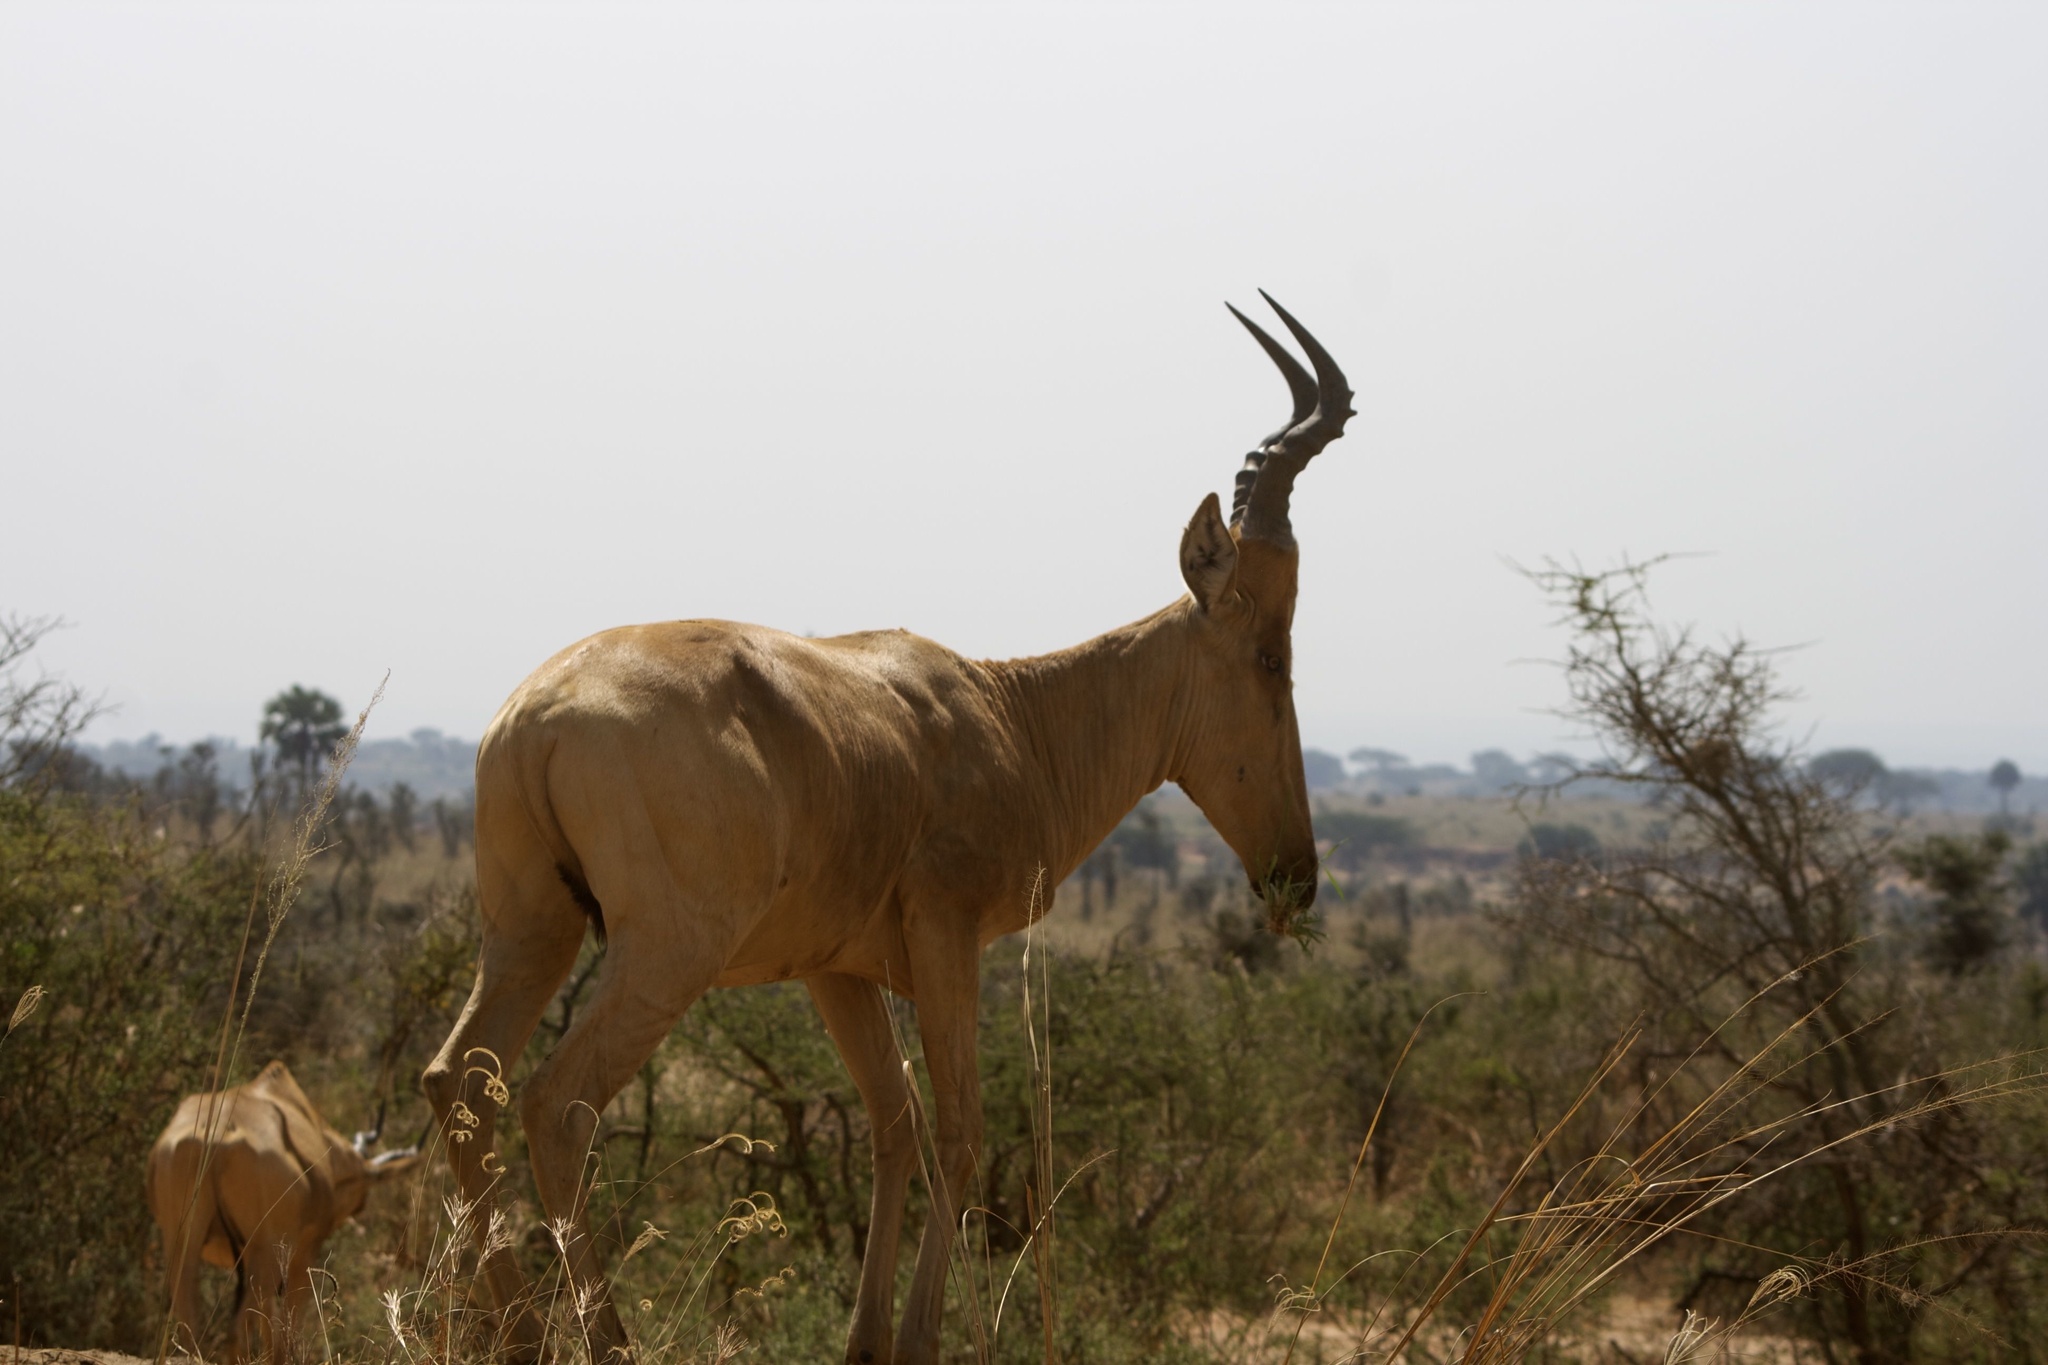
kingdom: Animalia
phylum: Chordata
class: Mammalia
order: Artiodactyla
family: Bovidae
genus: Alcelaphus
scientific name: Alcelaphus buselaphus
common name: Hartebeest
